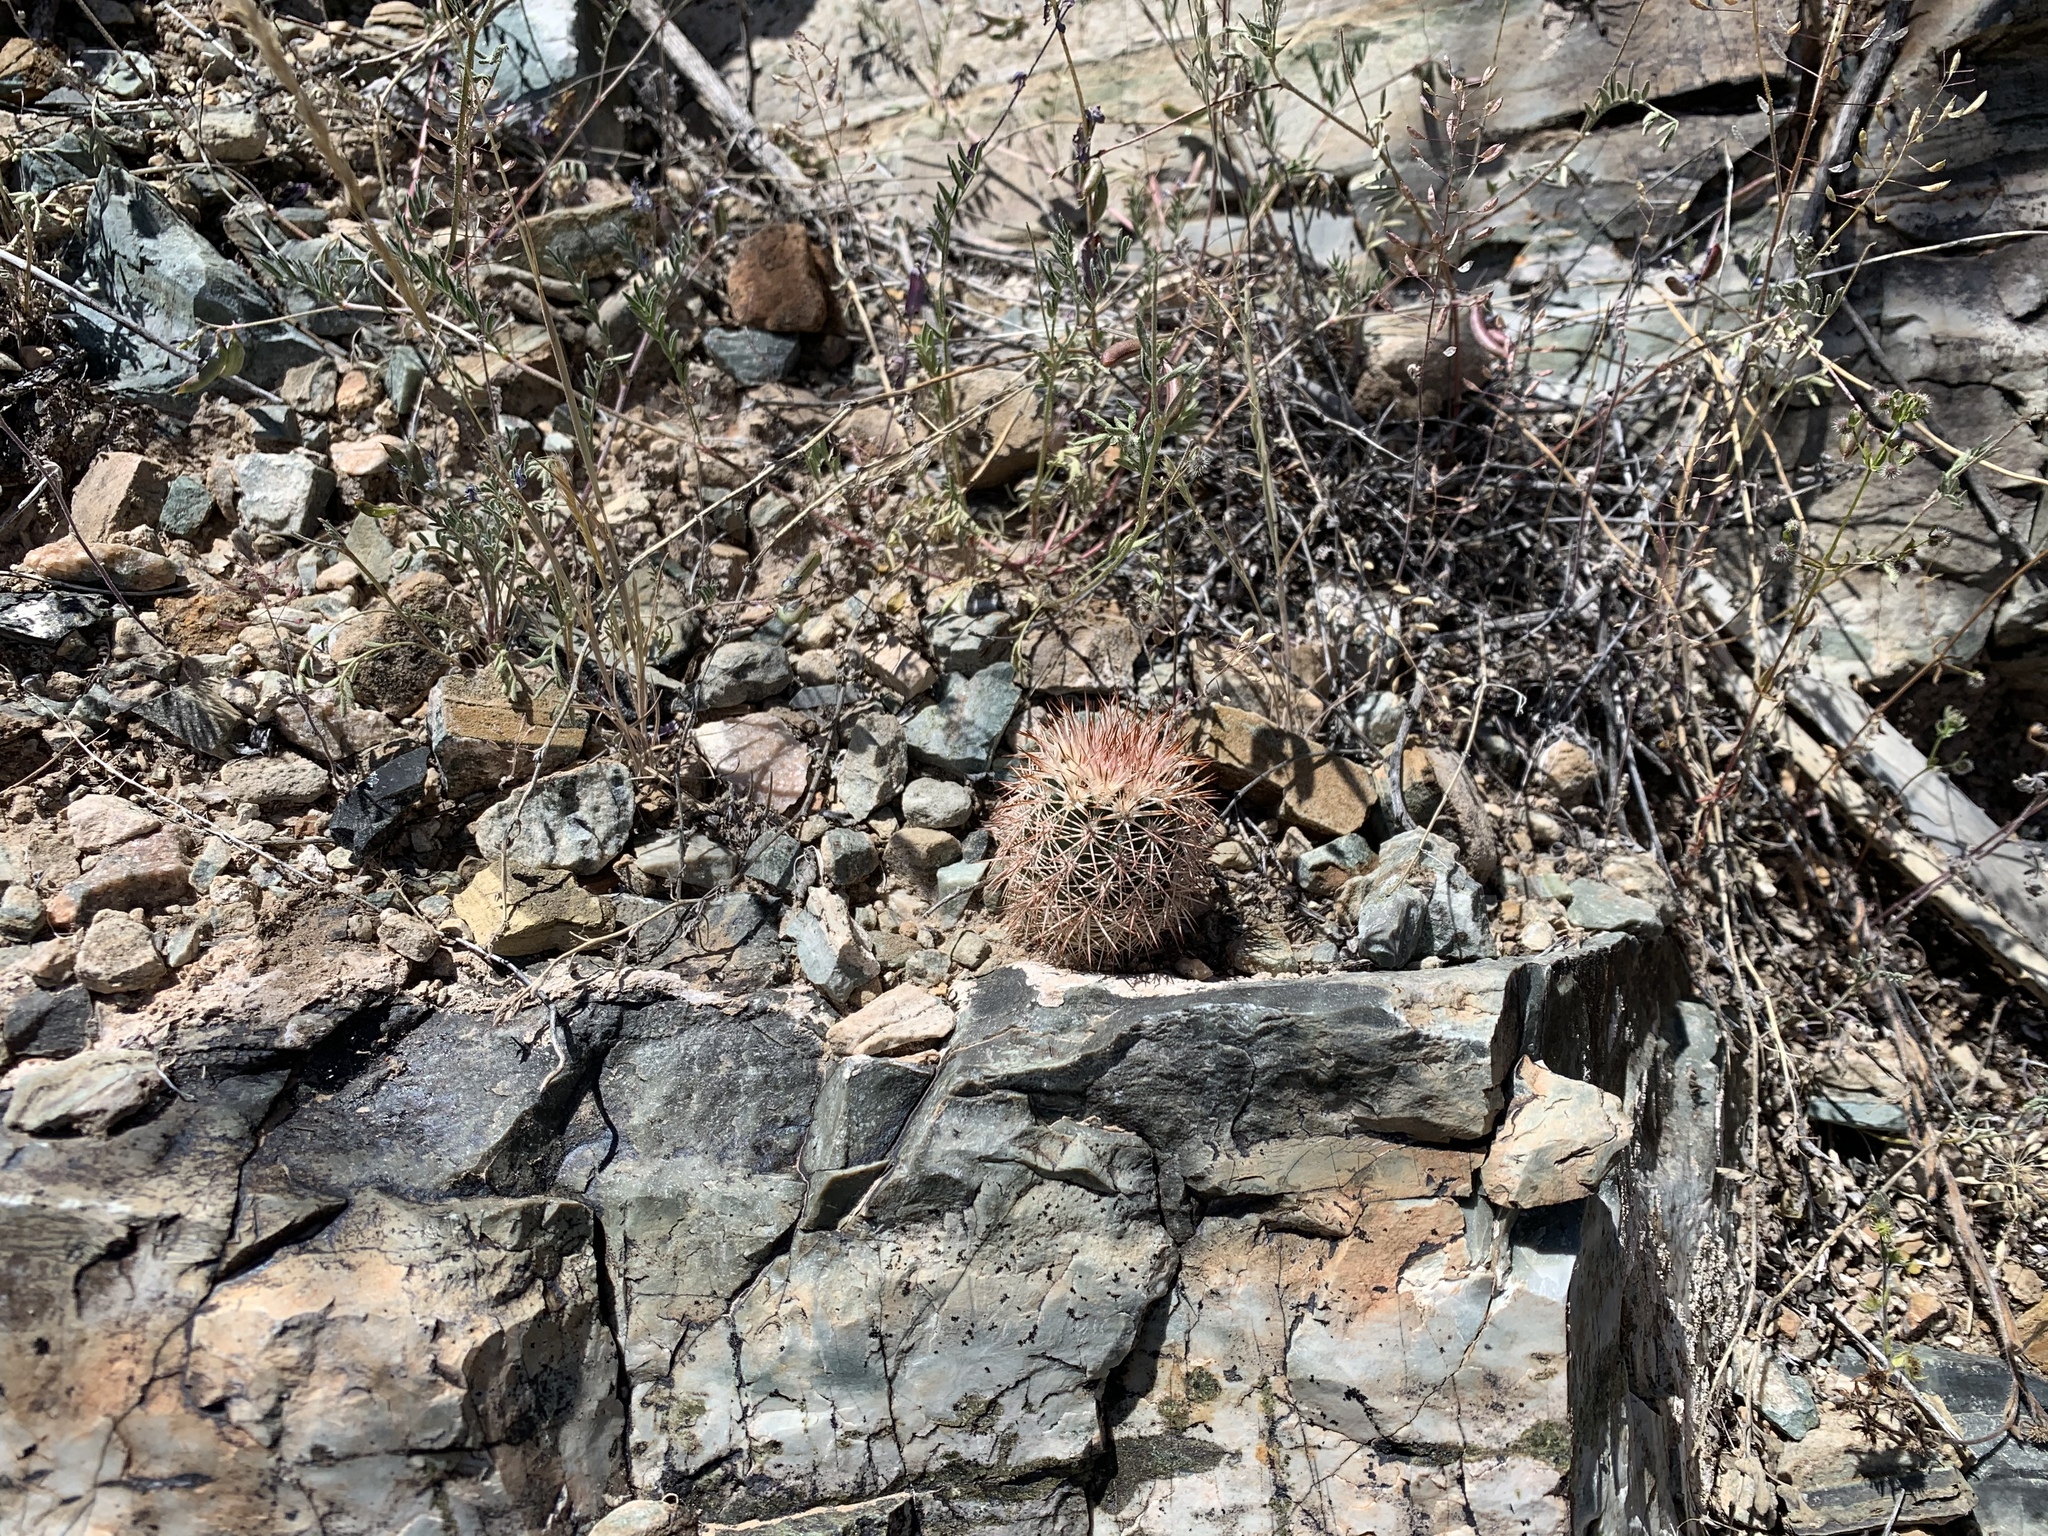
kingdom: Plantae
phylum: Tracheophyta
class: Magnoliopsida
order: Caryophyllales
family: Cactaceae
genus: Echinocereus
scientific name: Echinocereus viridiflorus
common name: Nylon hedgehog cactus
